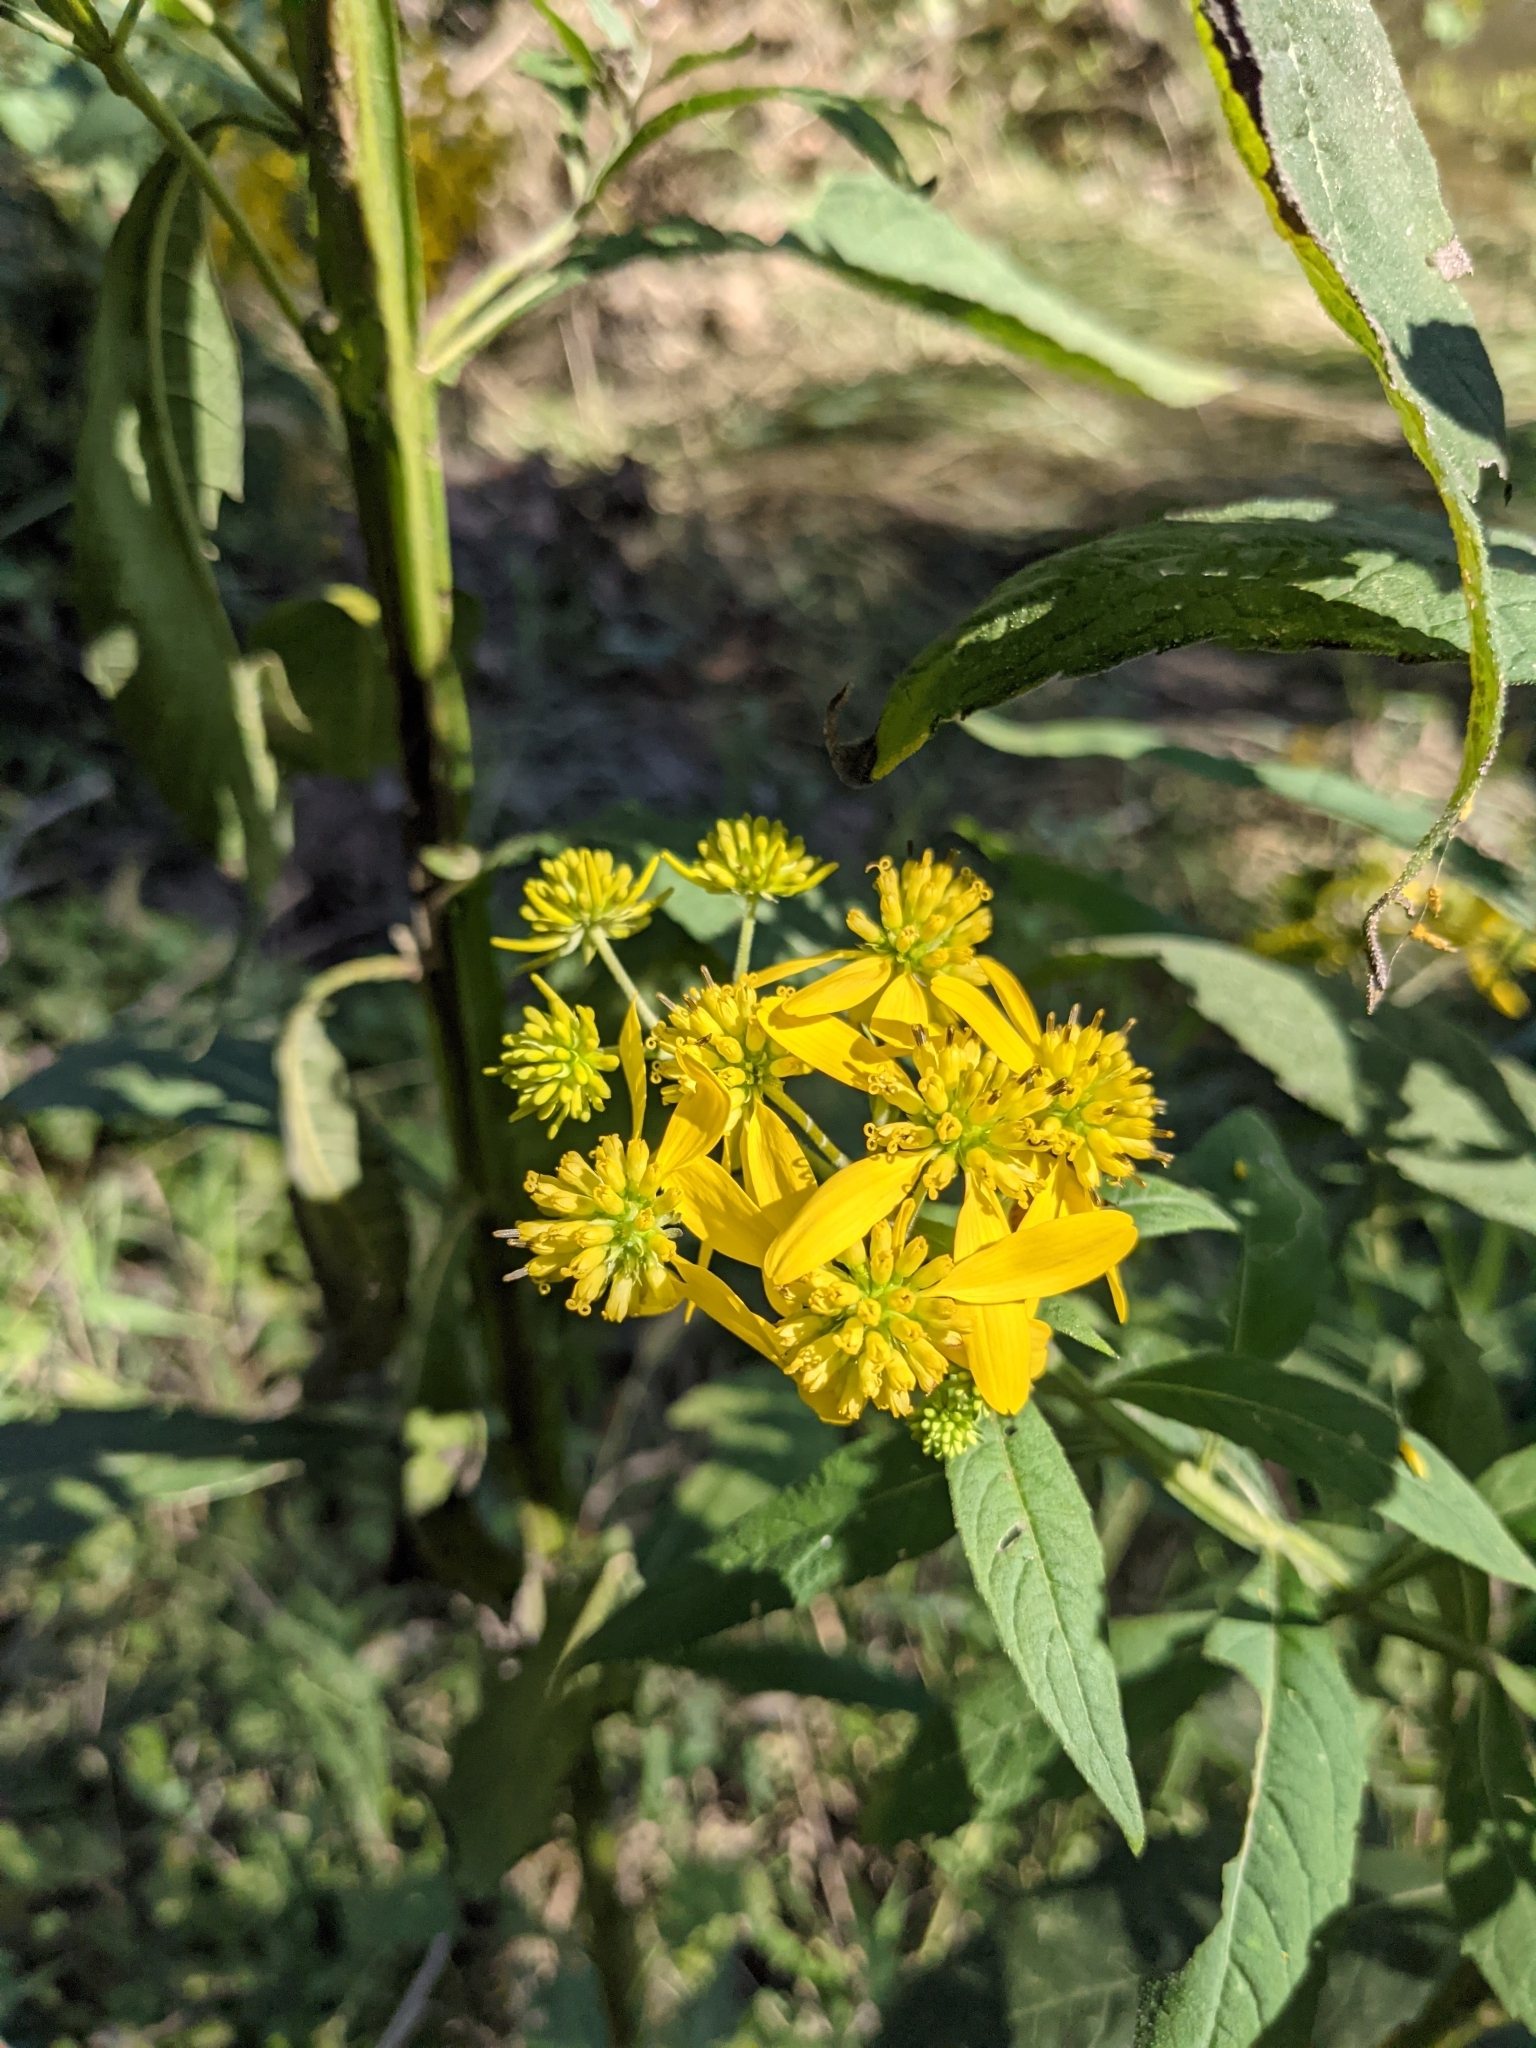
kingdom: Plantae
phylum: Tracheophyta
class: Magnoliopsida
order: Asterales
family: Asteraceae
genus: Verbesina
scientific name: Verbesina alternifolia
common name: Wingstem
